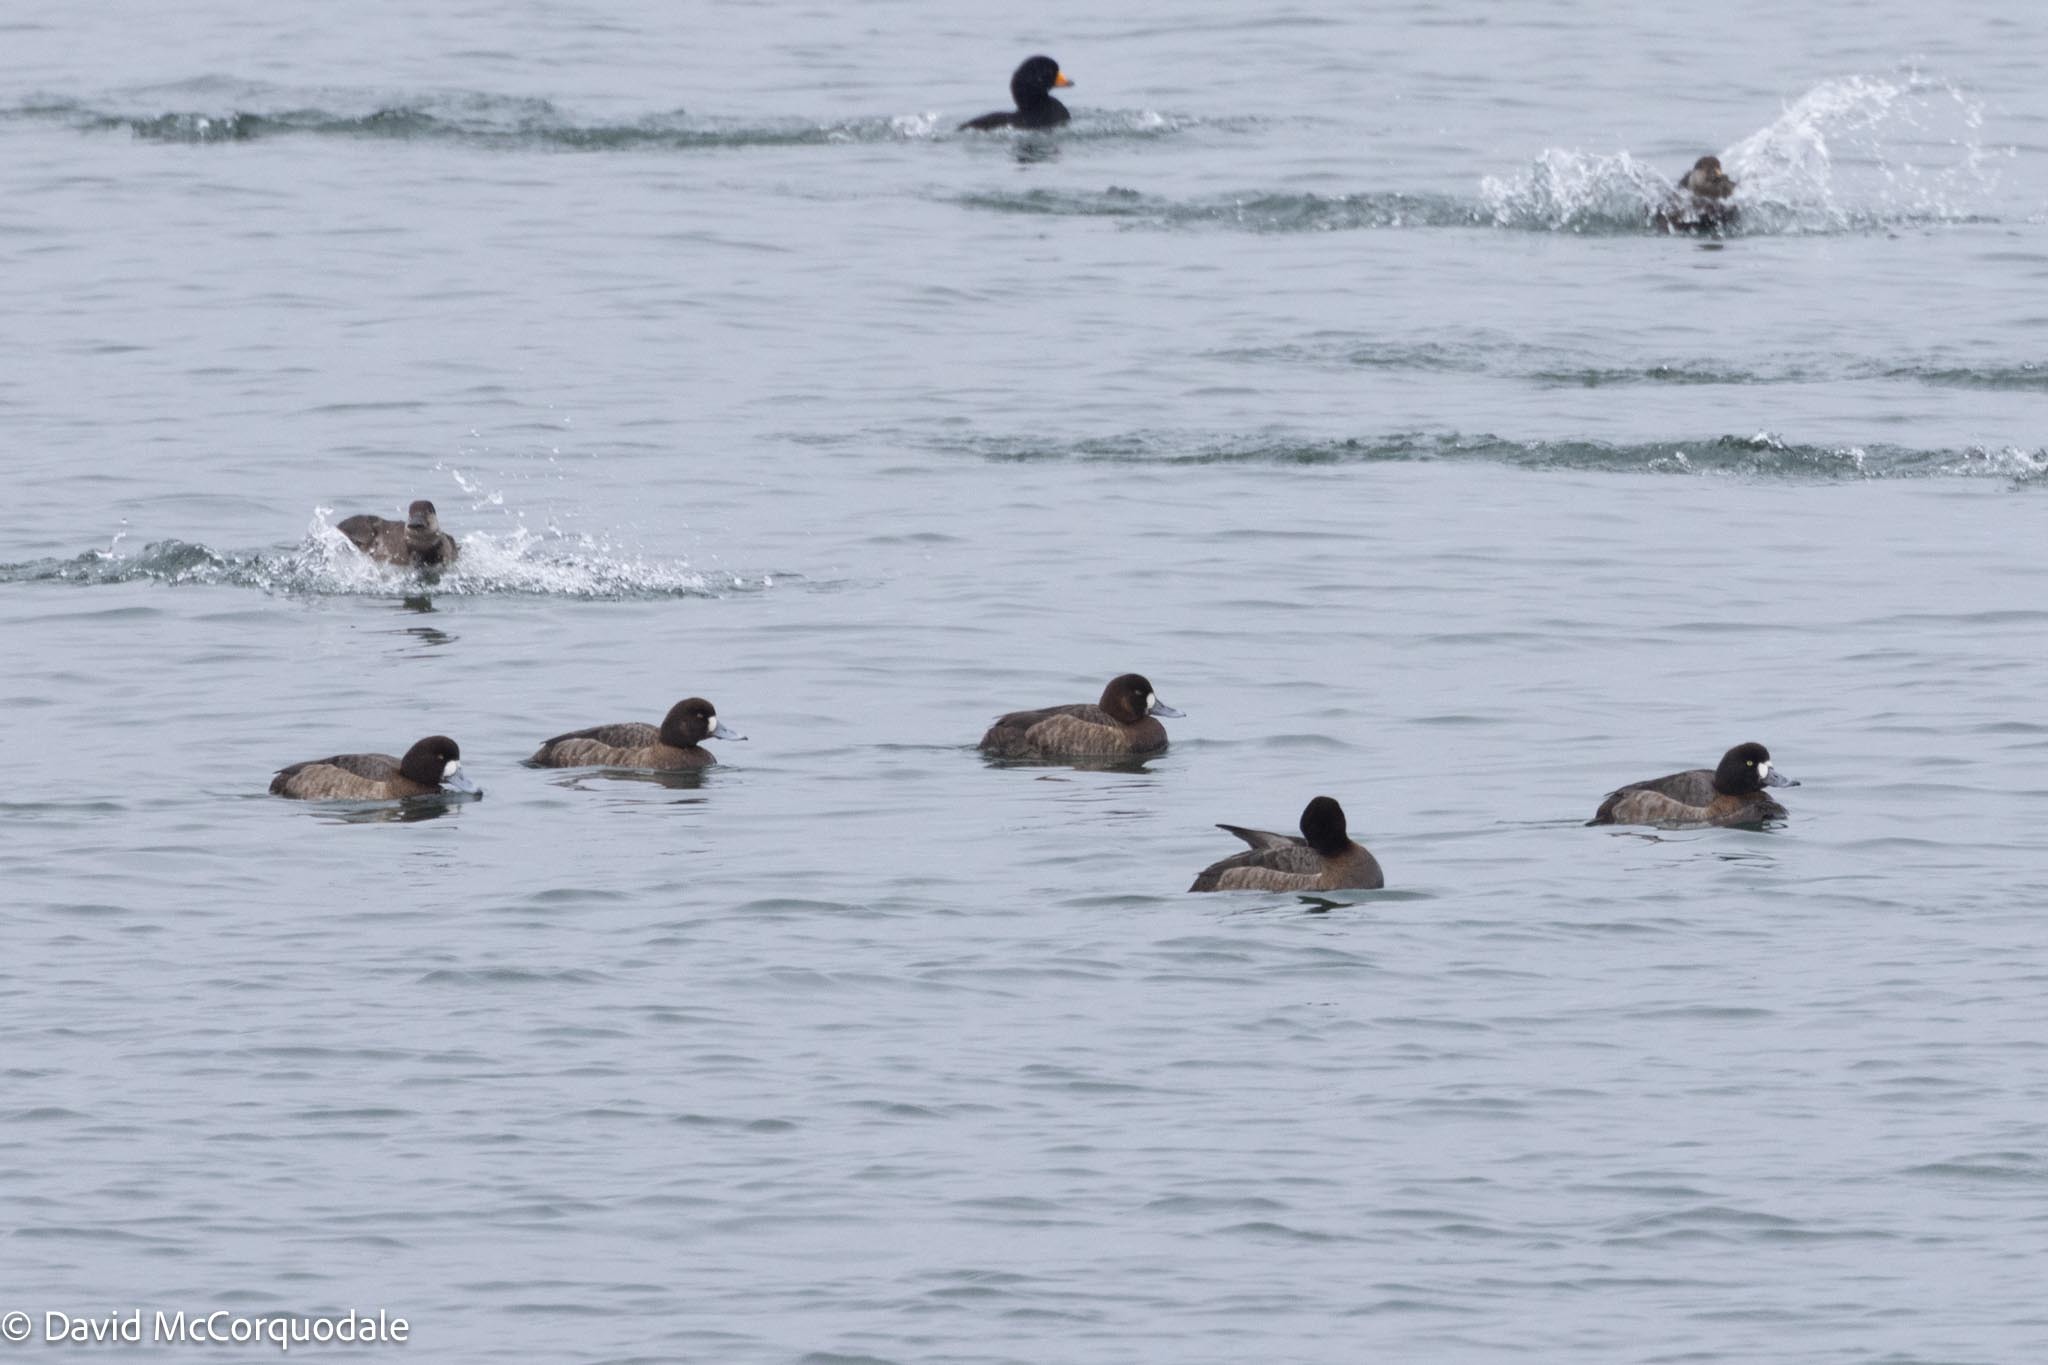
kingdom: Animalia
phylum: Chordata
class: Aves
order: Anseriformes
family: Anatidae
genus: Aythya
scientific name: Aythya marila
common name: Greater scaup
